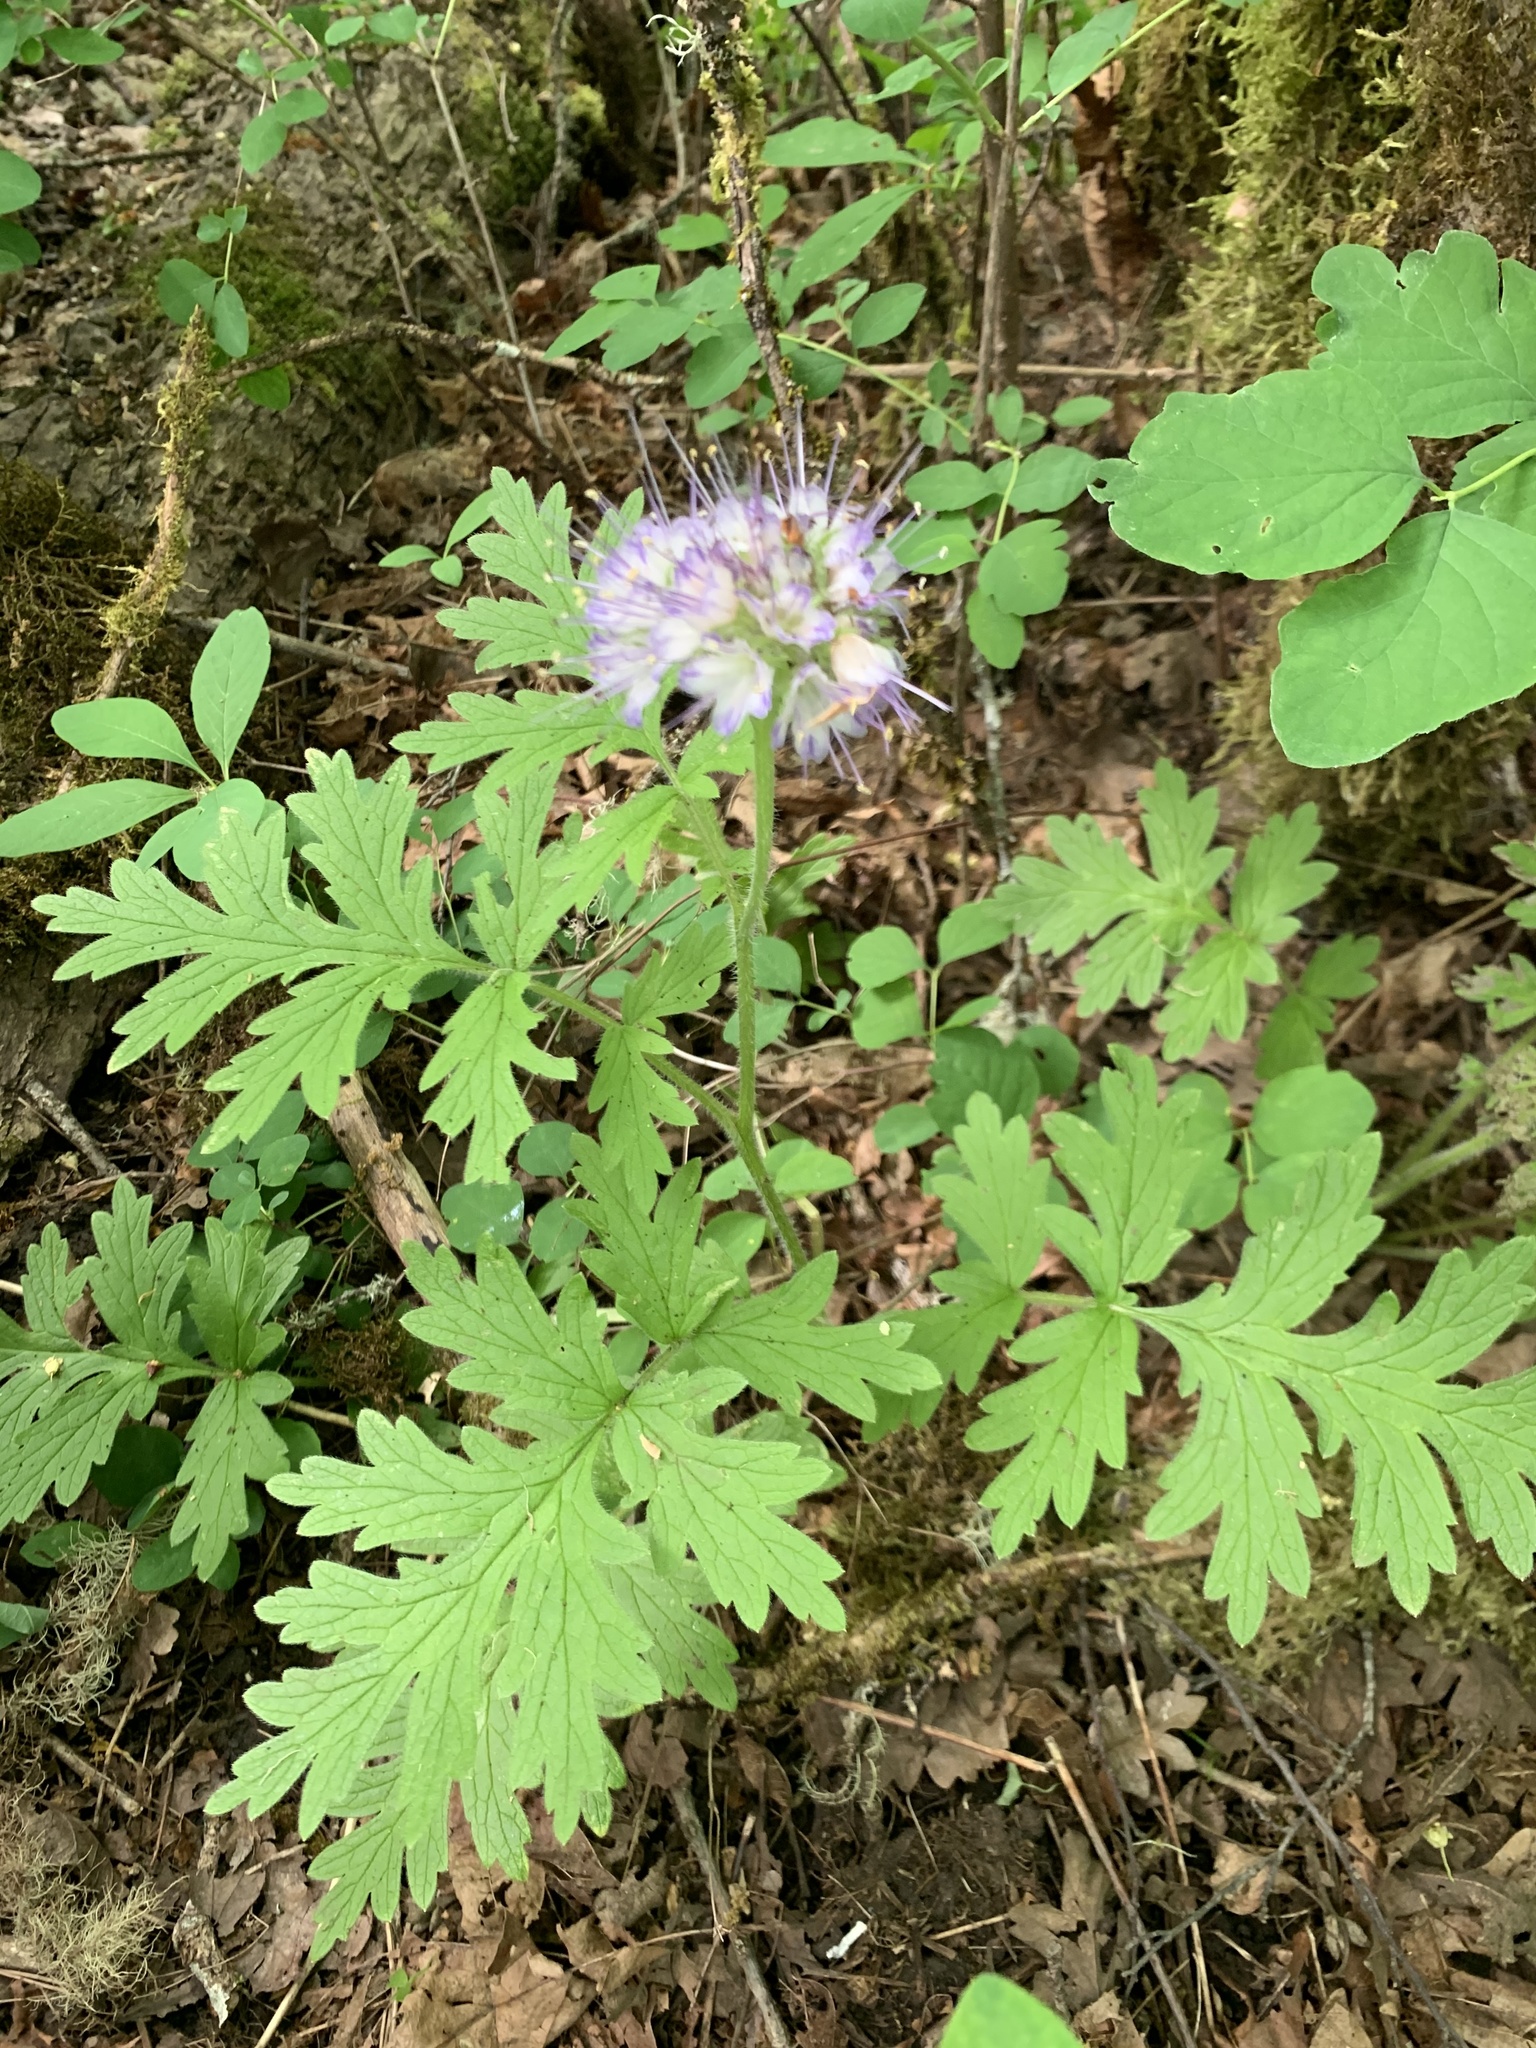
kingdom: Plantae
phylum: Tracheophyta
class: Magnoliopsida
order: Boraginales
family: Hydrophyllaceae
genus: Hydrophyllum
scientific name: Hydrophyllum occidentale
